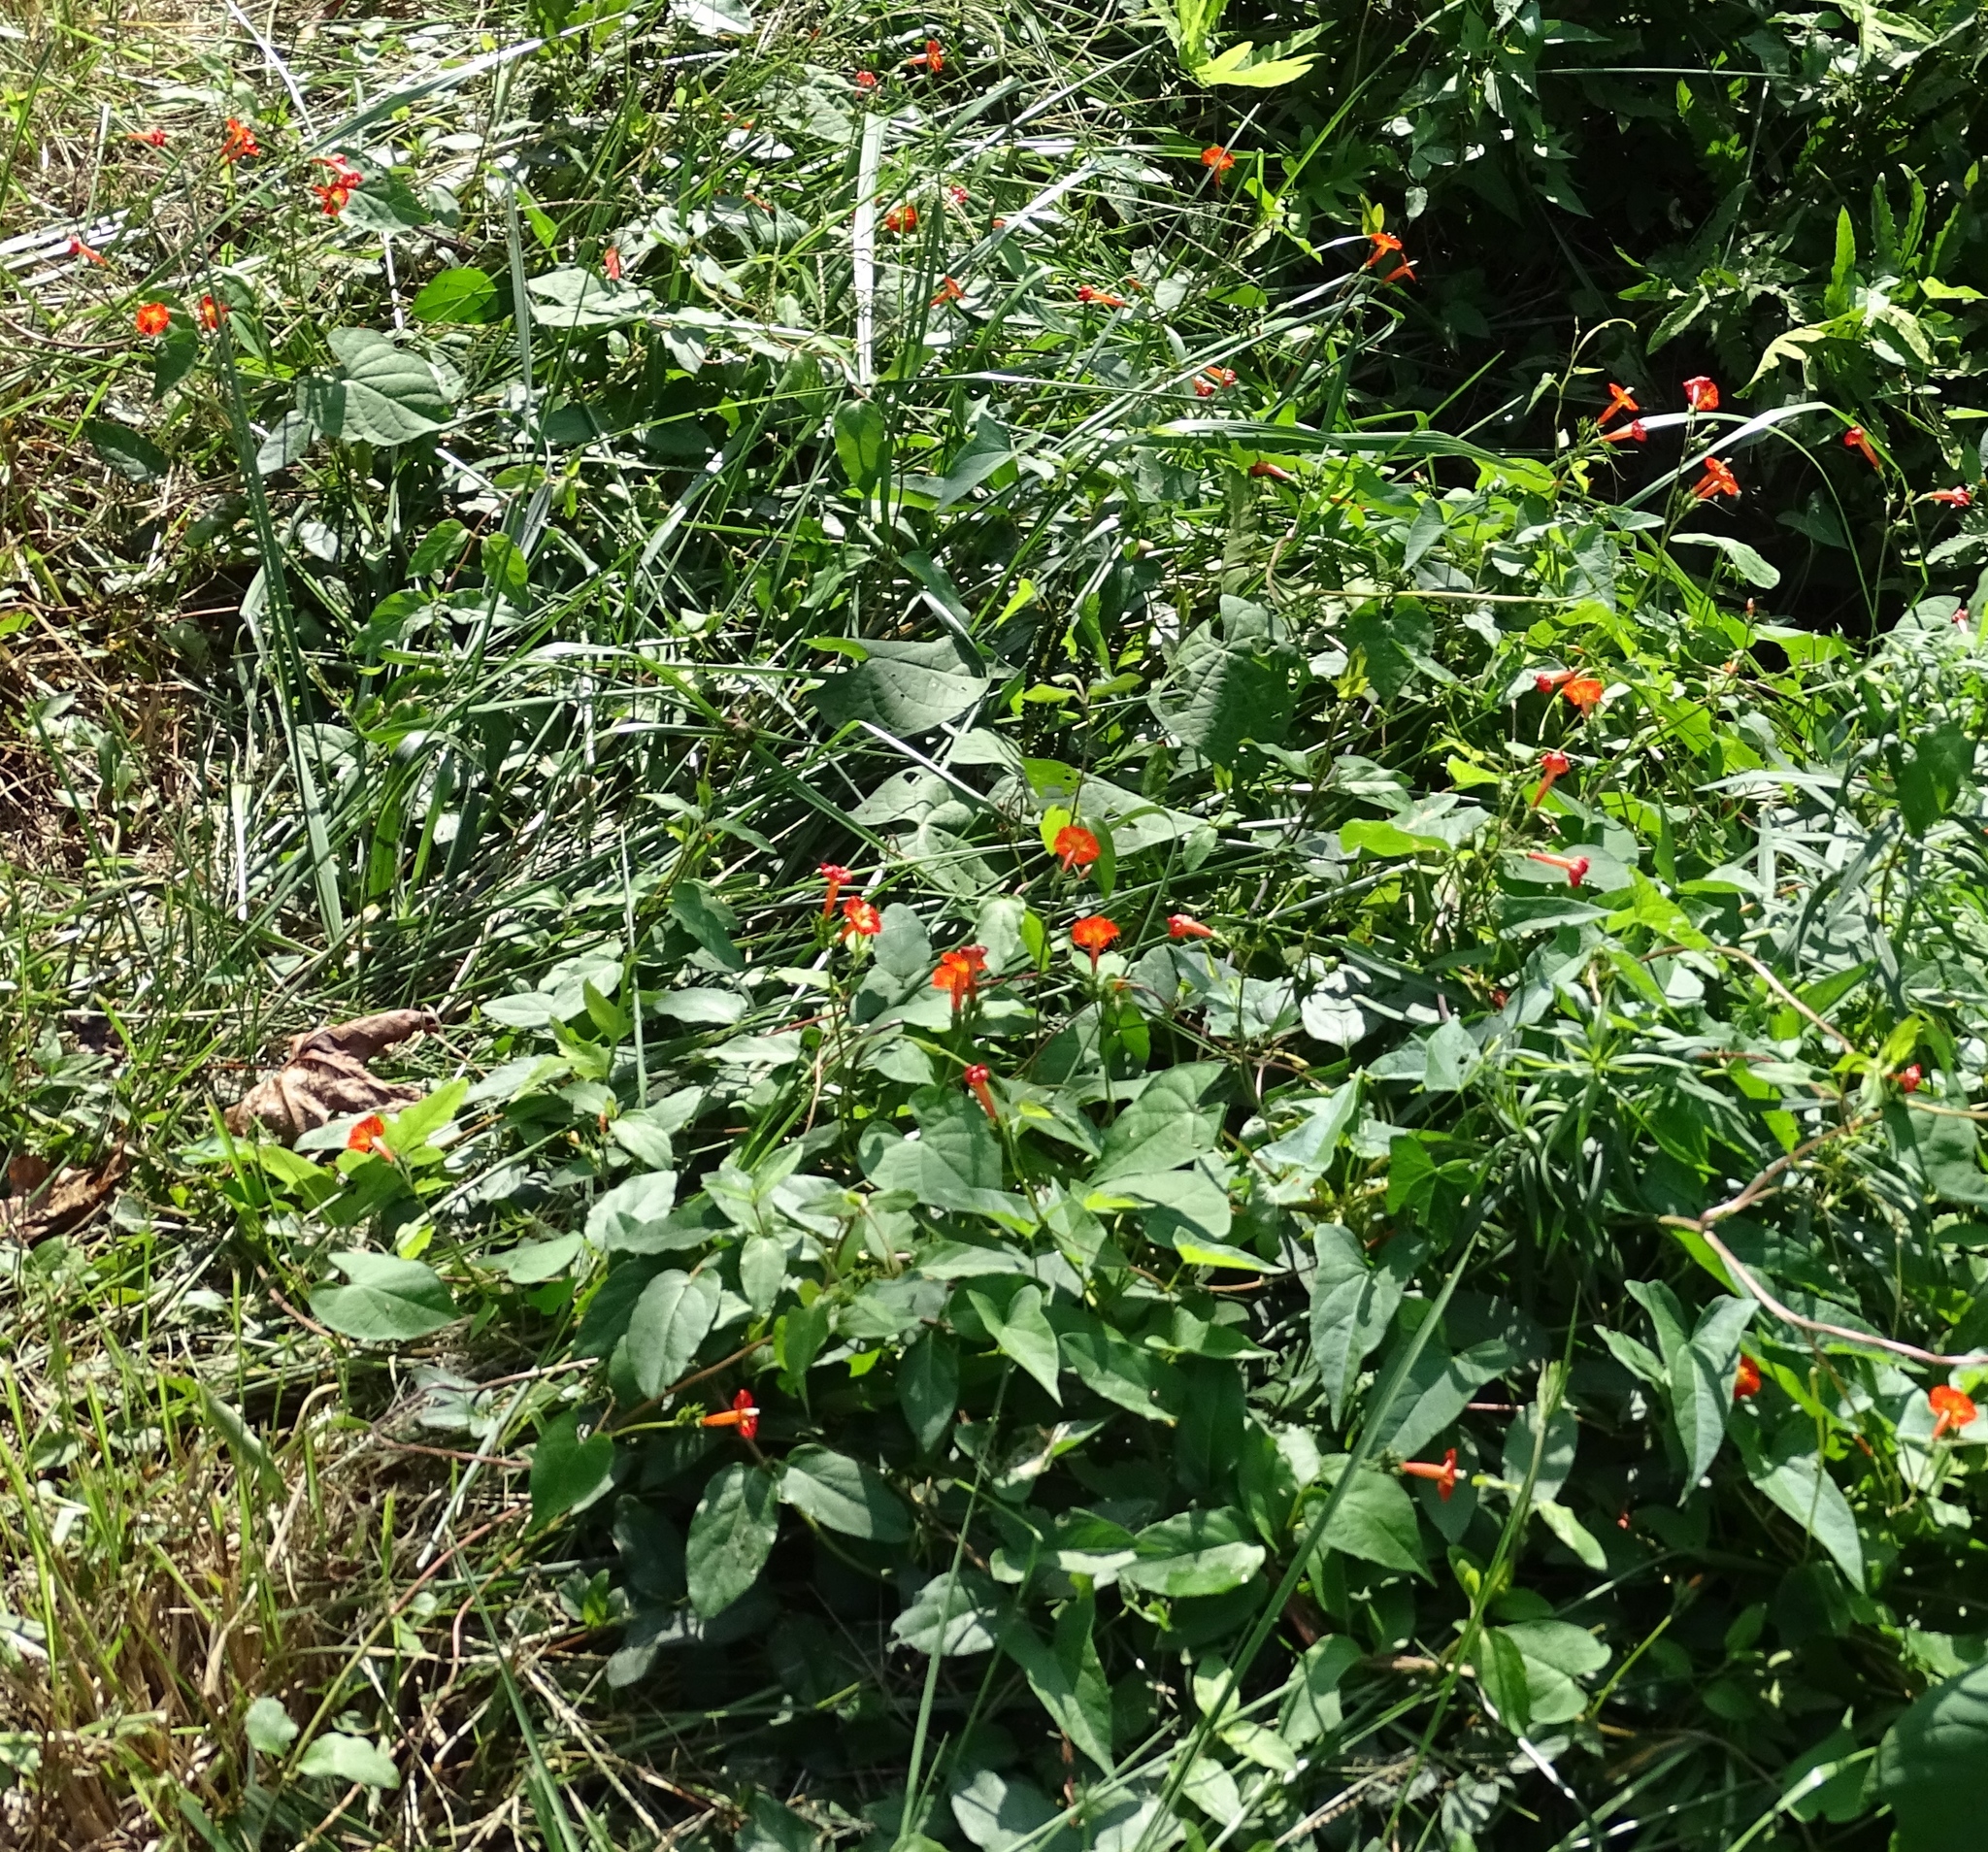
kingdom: Plantae
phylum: Tracheophyta
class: Magnoliopsida
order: Solanales
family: Convolvulaceae
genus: Ipomoea
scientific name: Ipomoea coccinea
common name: Red morning-glory
